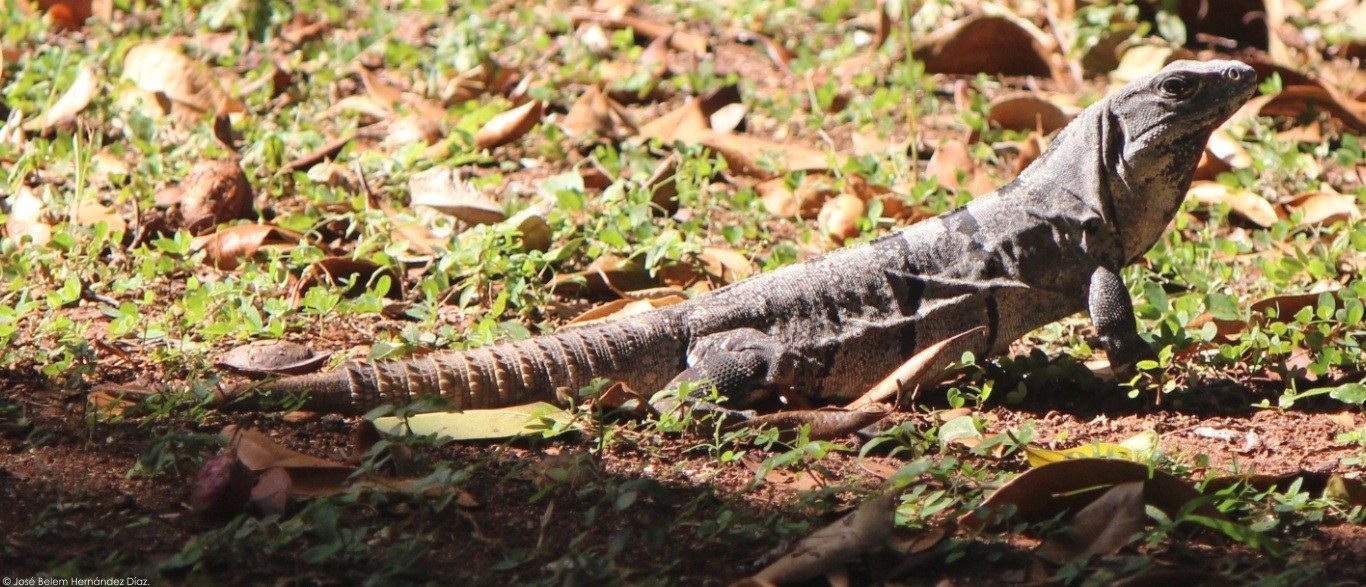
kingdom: Animalia
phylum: Chordata
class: Squamata
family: Iguanidae
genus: Ctenosaura
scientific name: Ctenosaura similis
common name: Black spiny-tailed iguana
